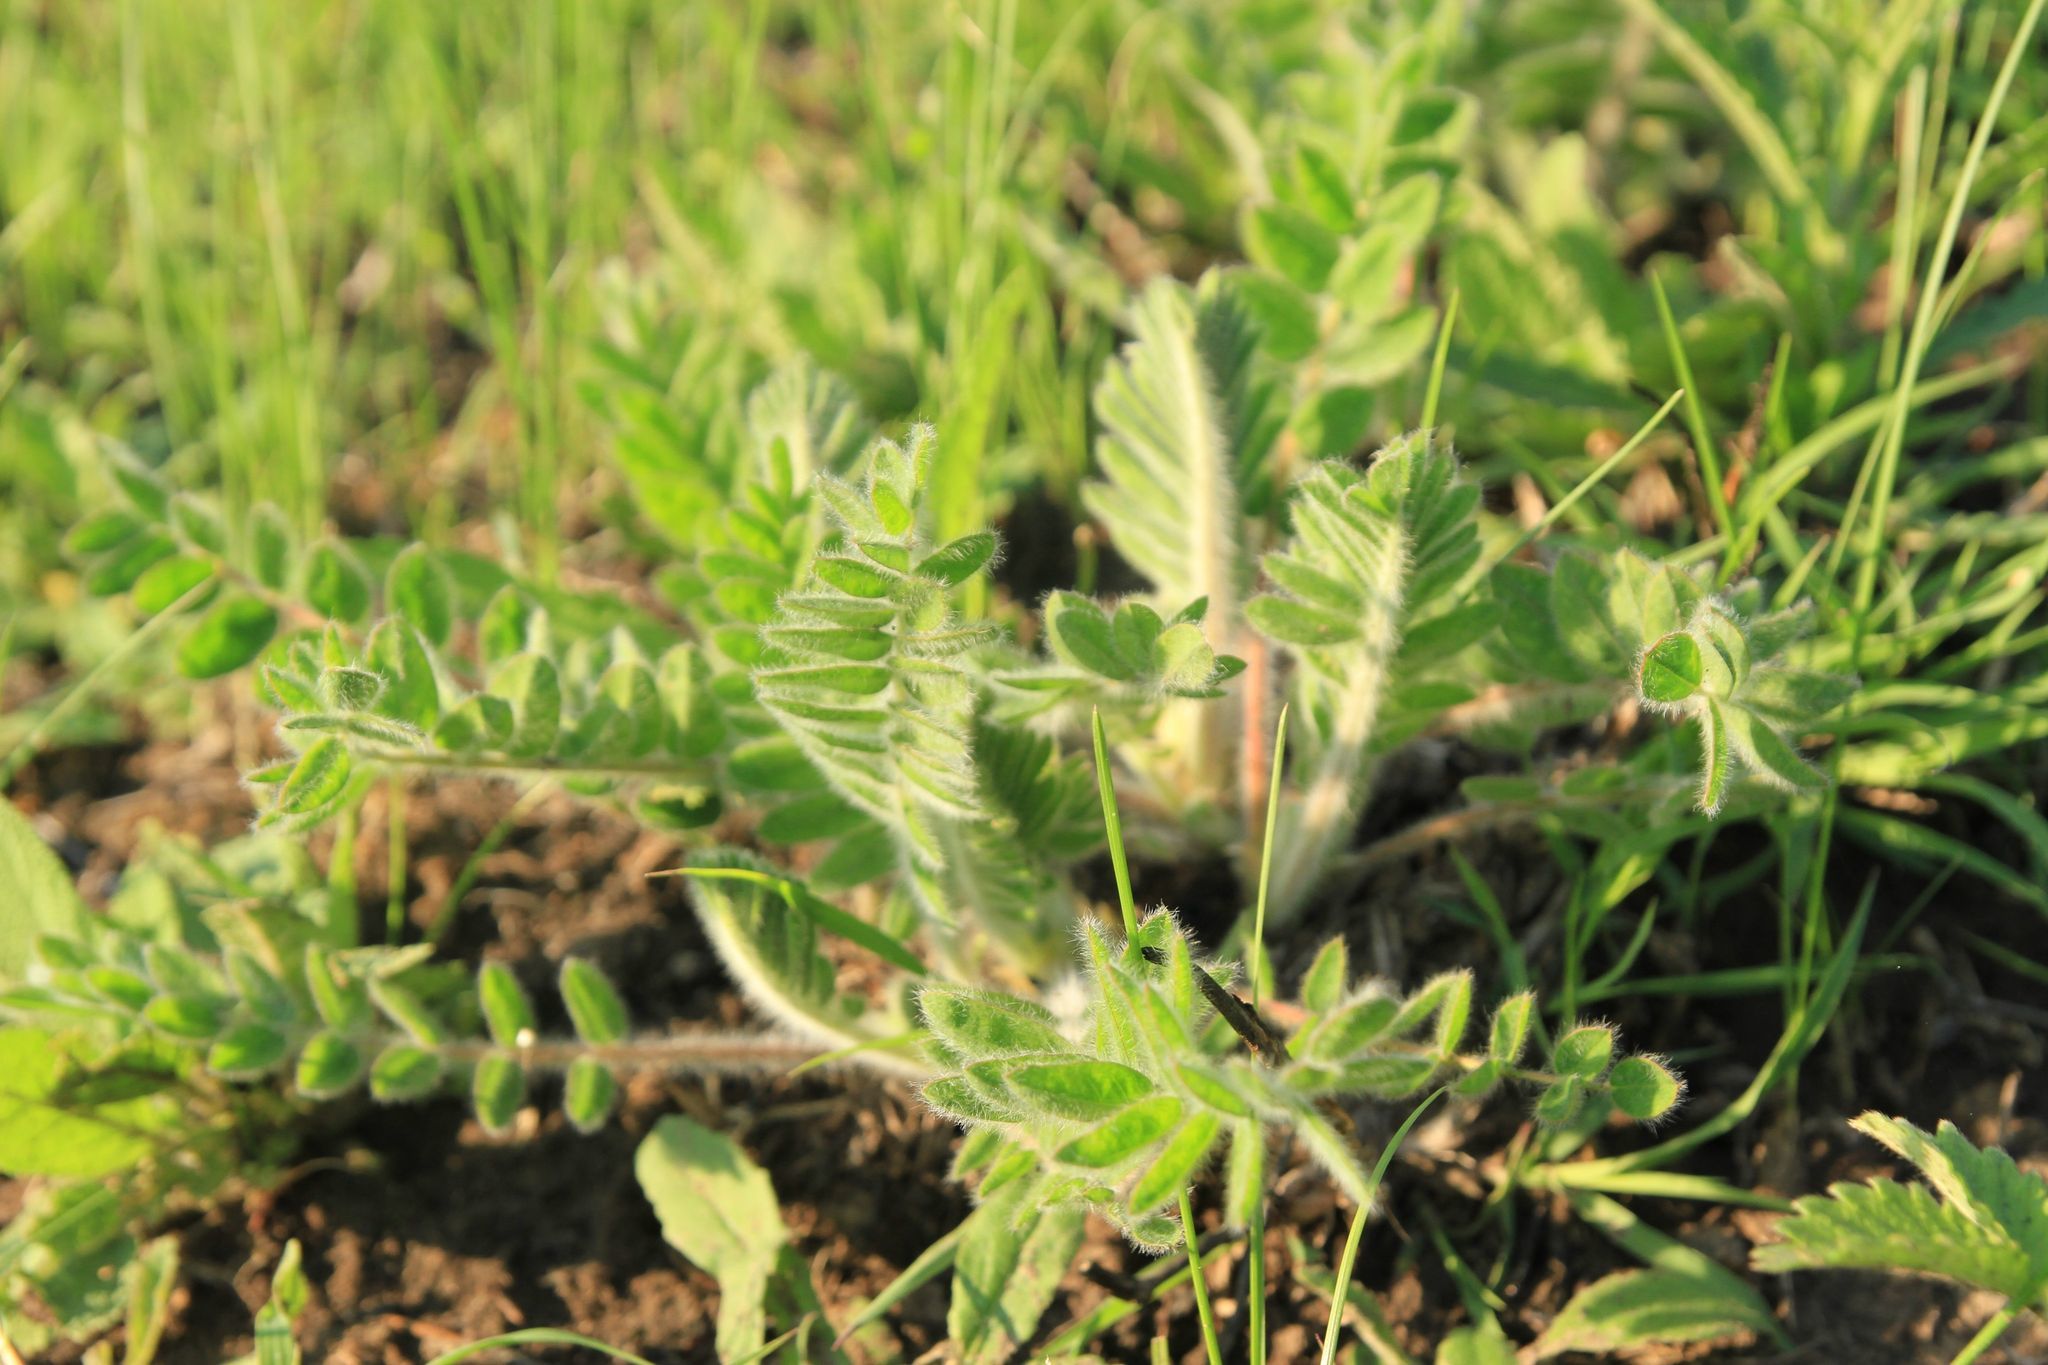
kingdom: Plantae
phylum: Tracheophyta
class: Magnoliopsida
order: Fabales
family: Fabaceae
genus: Astragalus
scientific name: Astragalus dasyanthus
